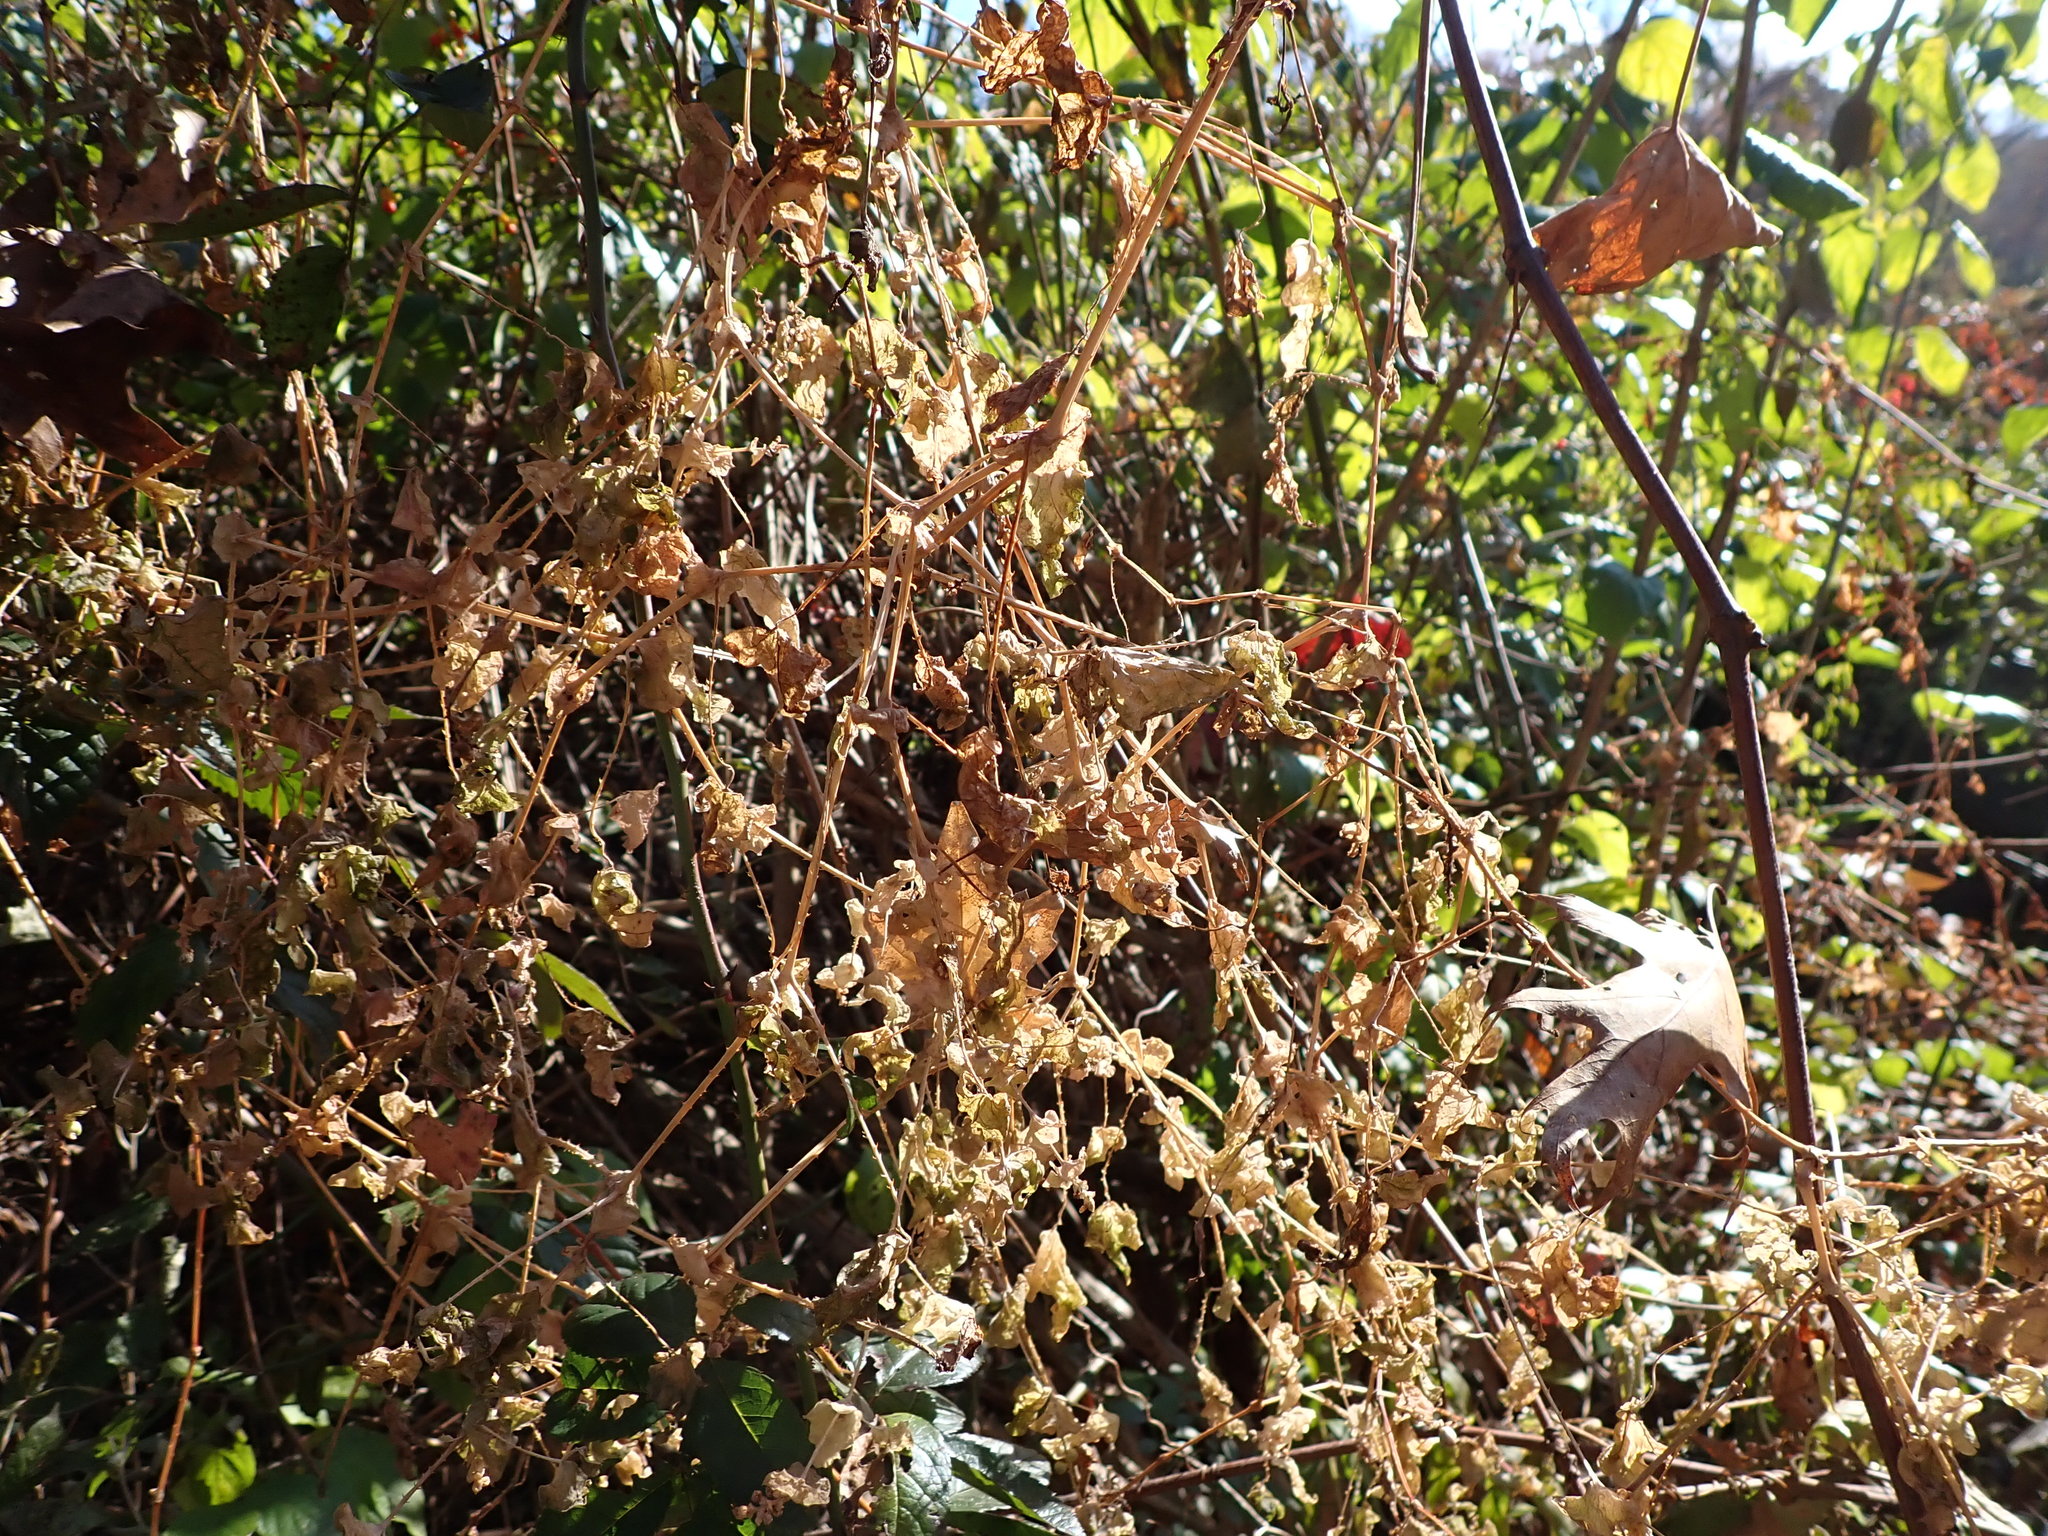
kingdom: Plantae
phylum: Tracheophyta
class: Magnoliopsida
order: Caryophyllales
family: Polygonaceae
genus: Persicaria
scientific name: Persicaria perfoliata
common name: Asiatic tearthumb
